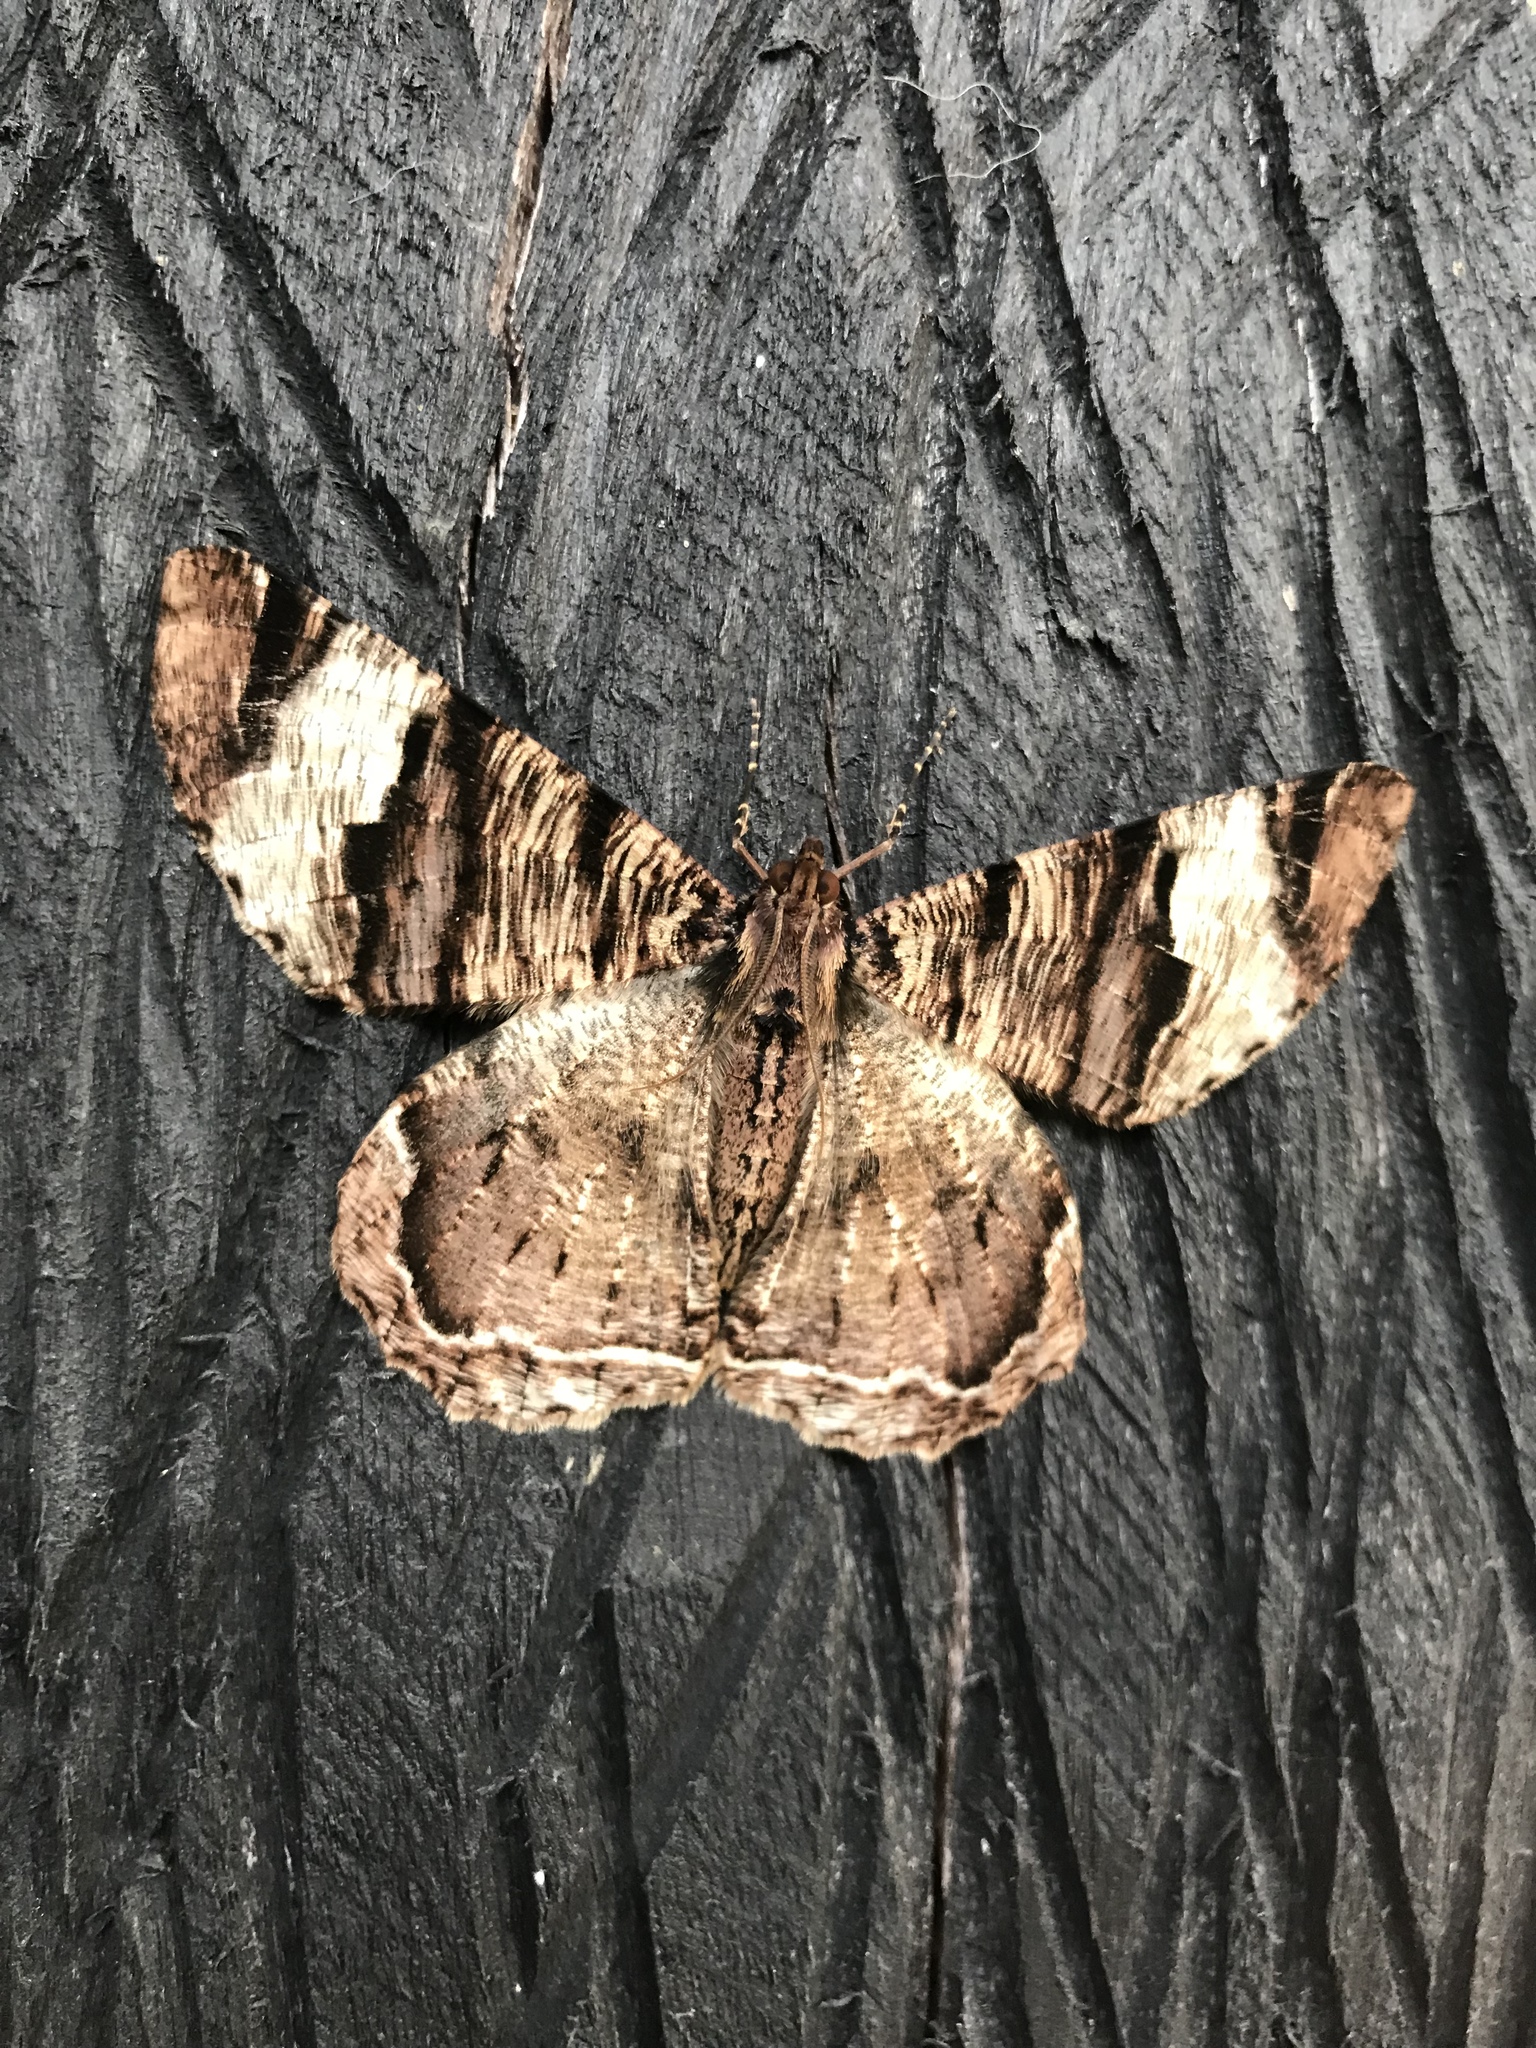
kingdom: Animalia
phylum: Arthropoda
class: Insecta
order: Lepidoptera
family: Geometridae
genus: Xandrames
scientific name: Xandrames latiferaria
